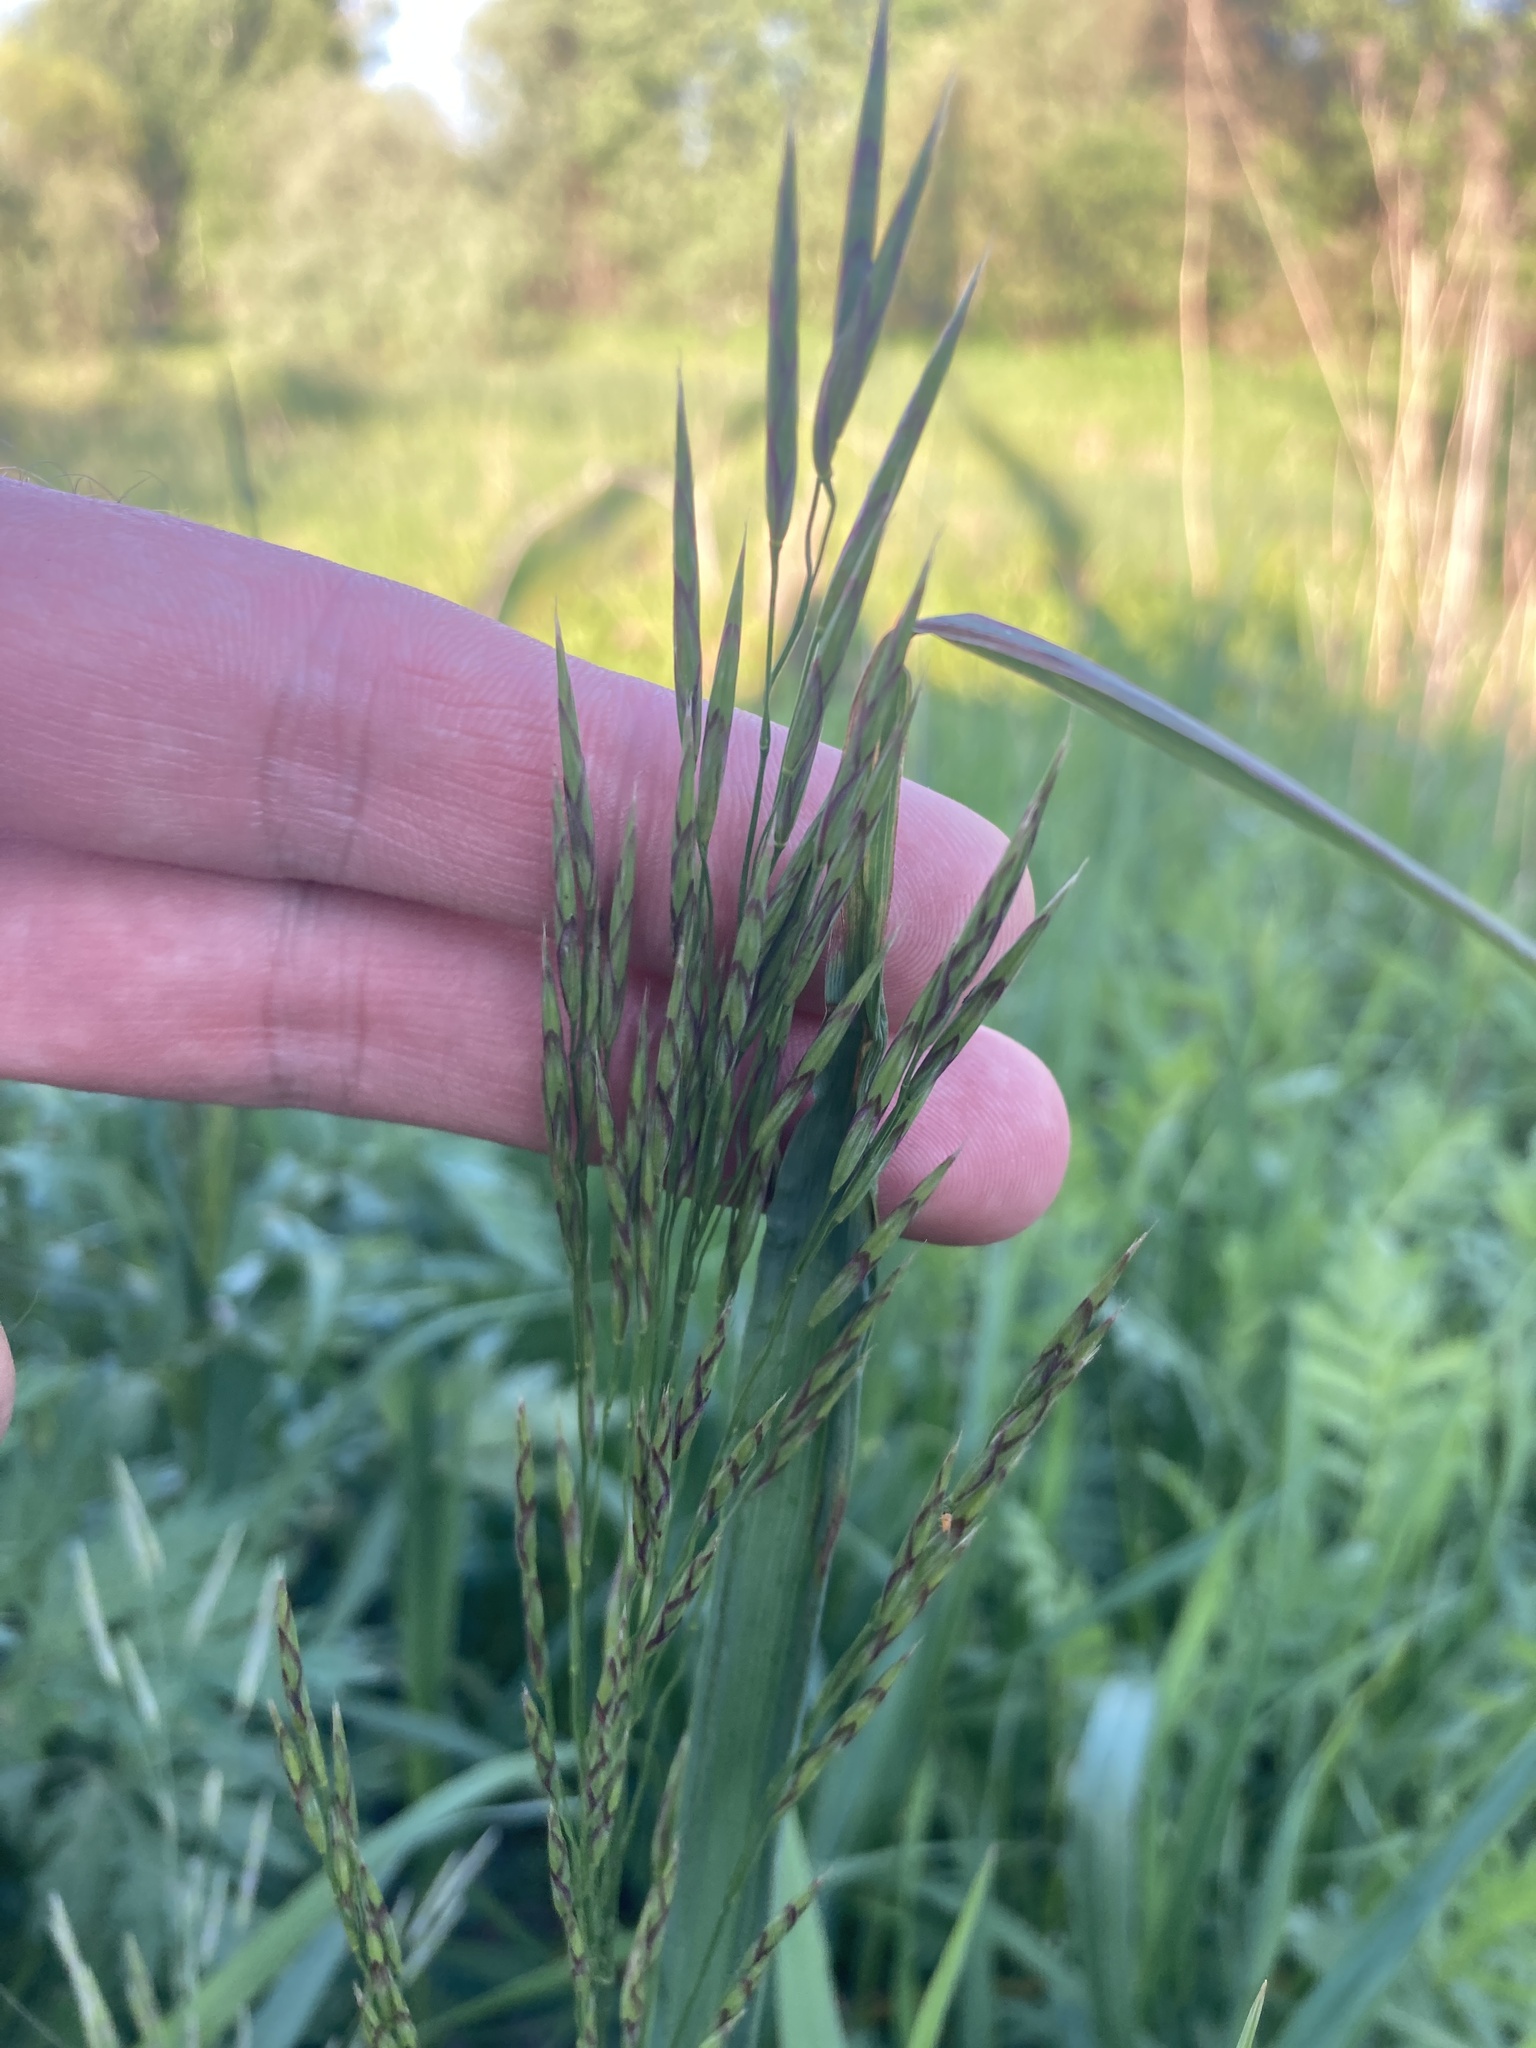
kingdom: Plantae
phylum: Tracheophyta
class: Liliopsida
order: Poales
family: Poaceae
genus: Bromus
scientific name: Bromus inermis
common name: Smooth brome
